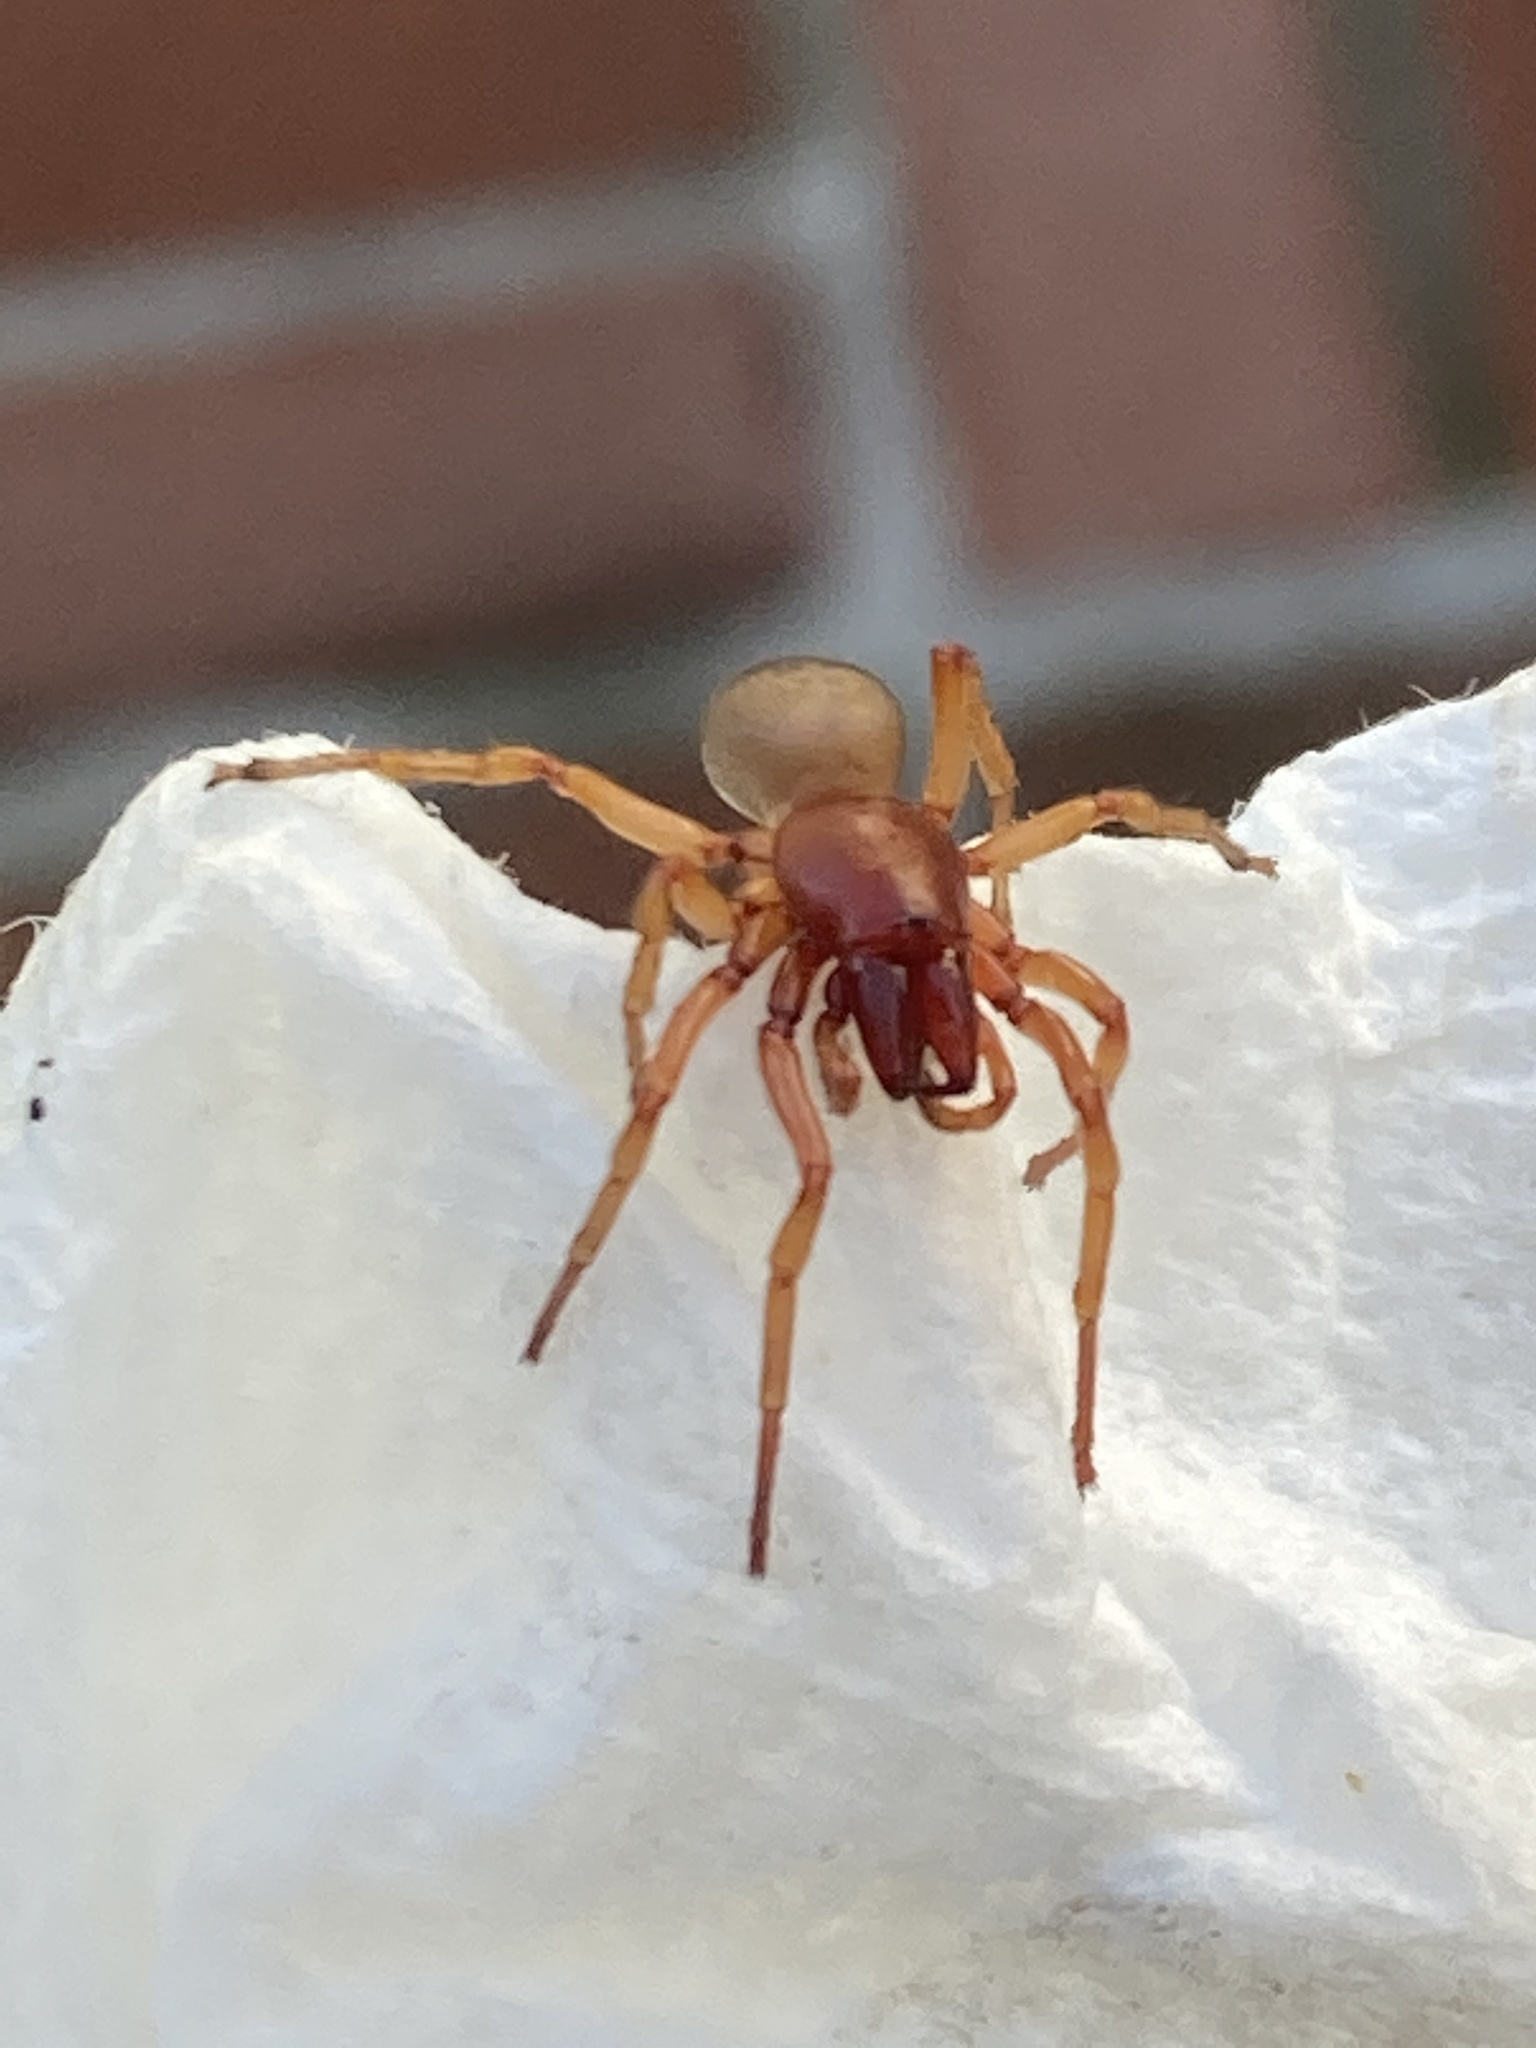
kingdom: Animalia
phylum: Arthropoda
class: Arachnida
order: Araneae
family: Dysderidae
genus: Dysdera
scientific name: Dysdera crocata
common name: Woodlouse spider
